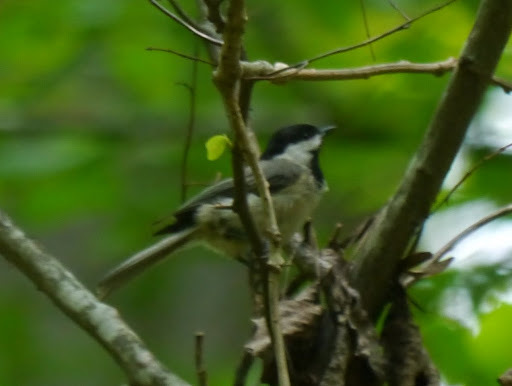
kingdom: Animalia
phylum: Chordata
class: Aves
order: Passeriformes
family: Paridae
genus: Poecile
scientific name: Poecile carolinensis
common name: Carolina chickadee
